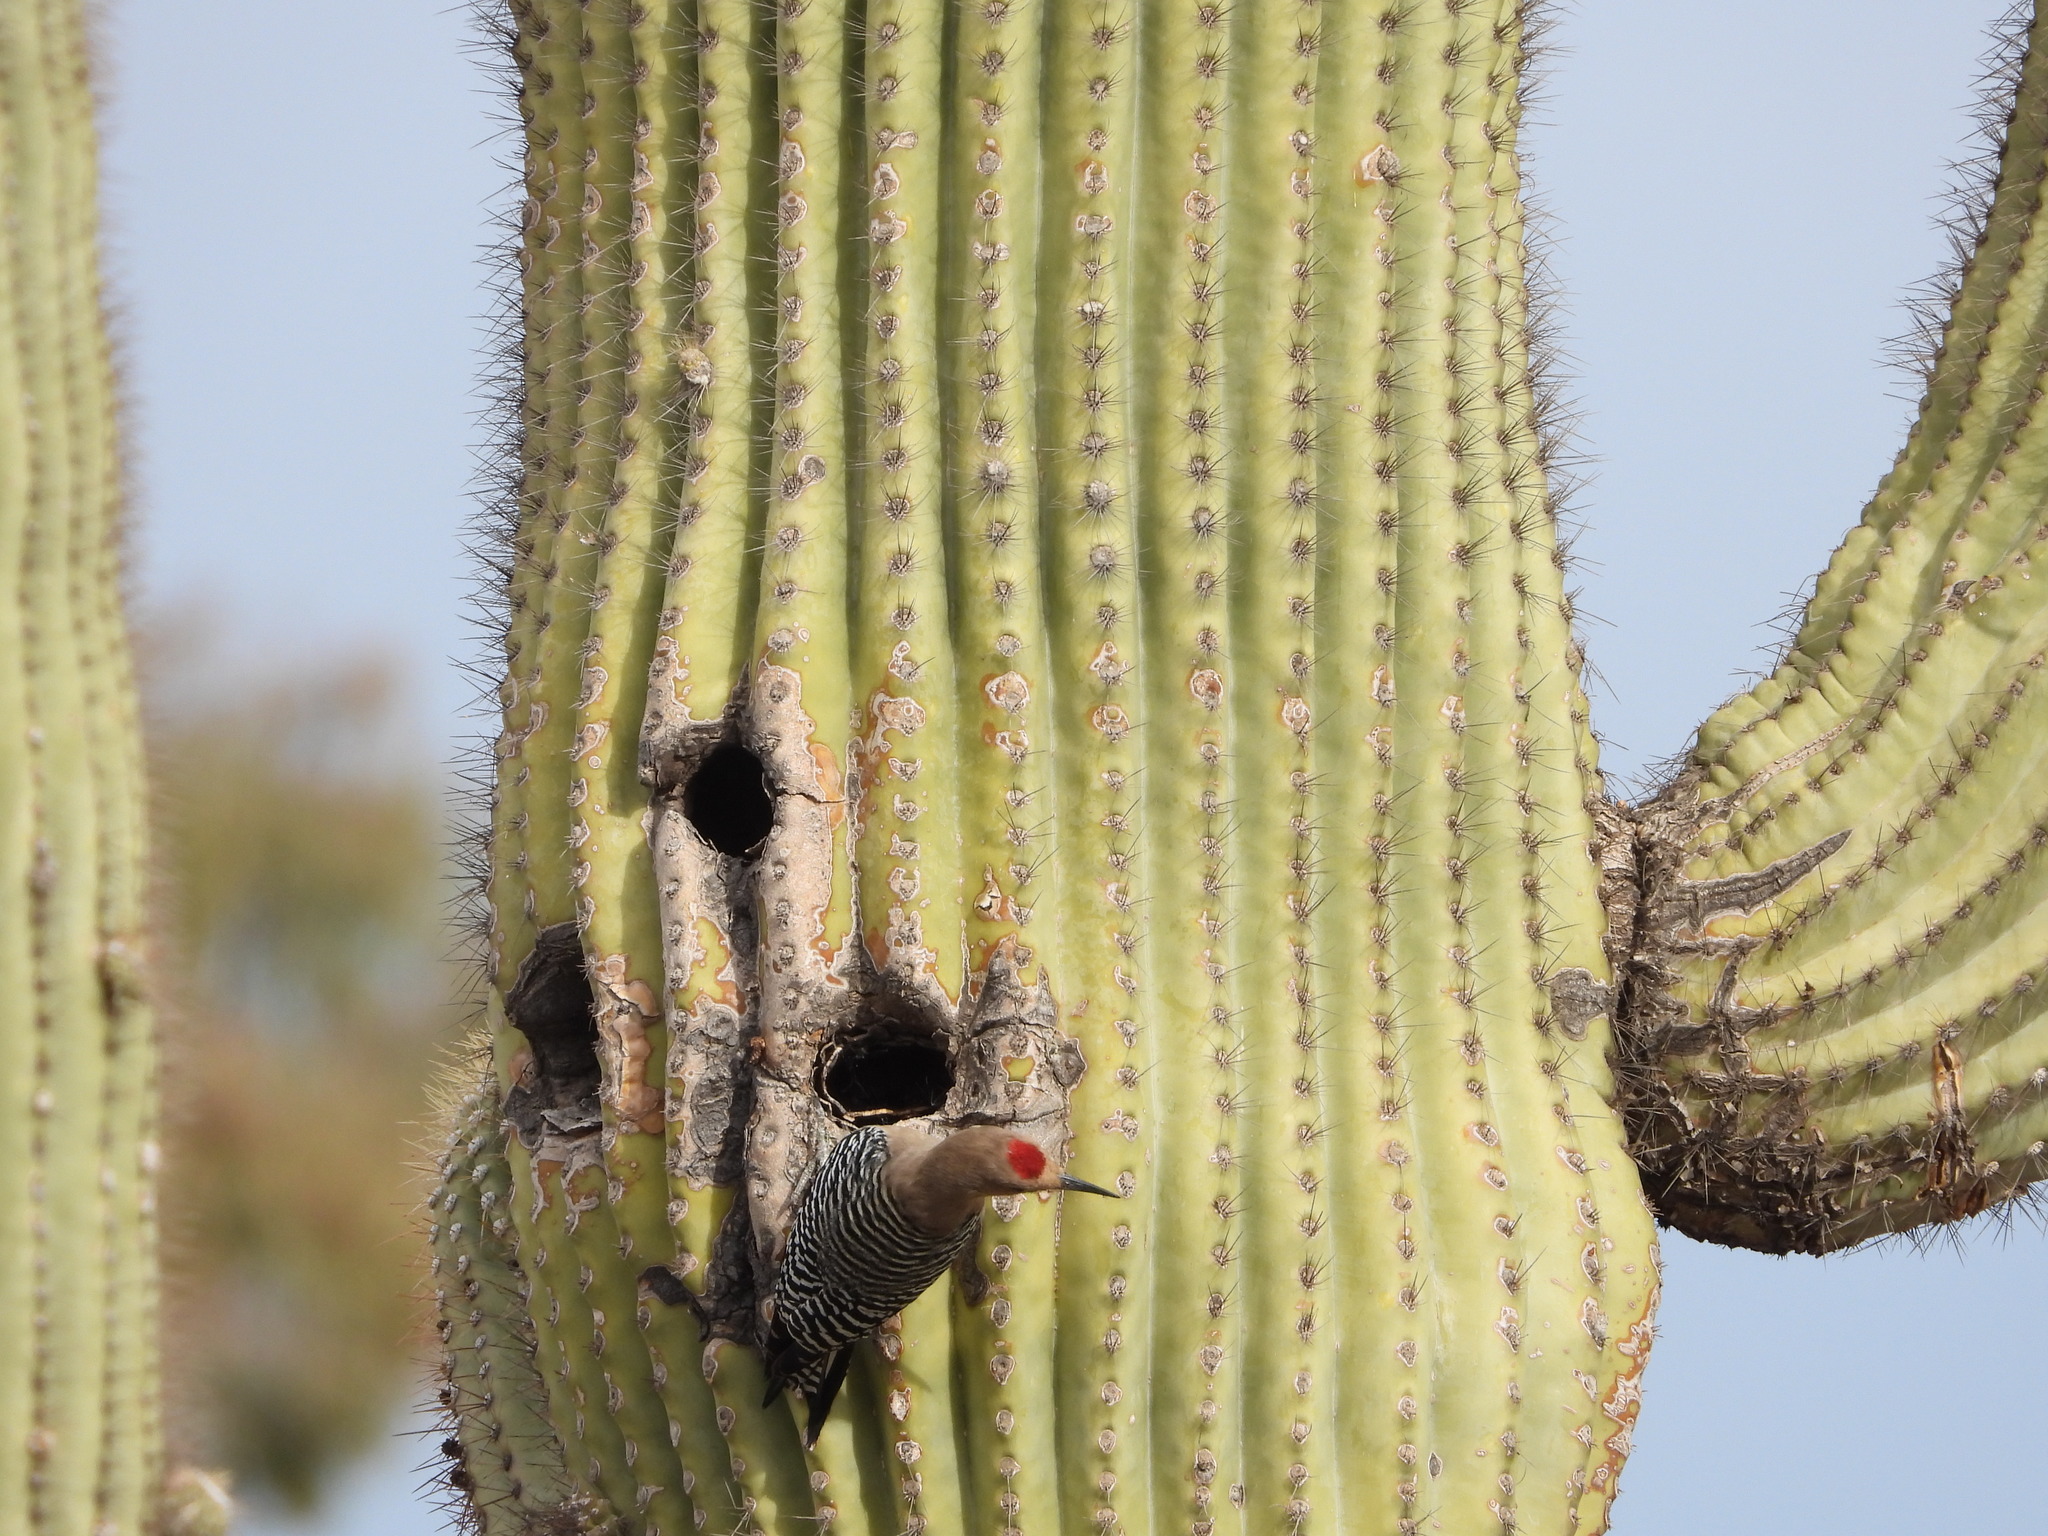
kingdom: Animalia
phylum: Chordata
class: Aves
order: Piciformes
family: Picidae
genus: Melanerpes
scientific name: Melanerpes uropygialis
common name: Gila woodpecker
